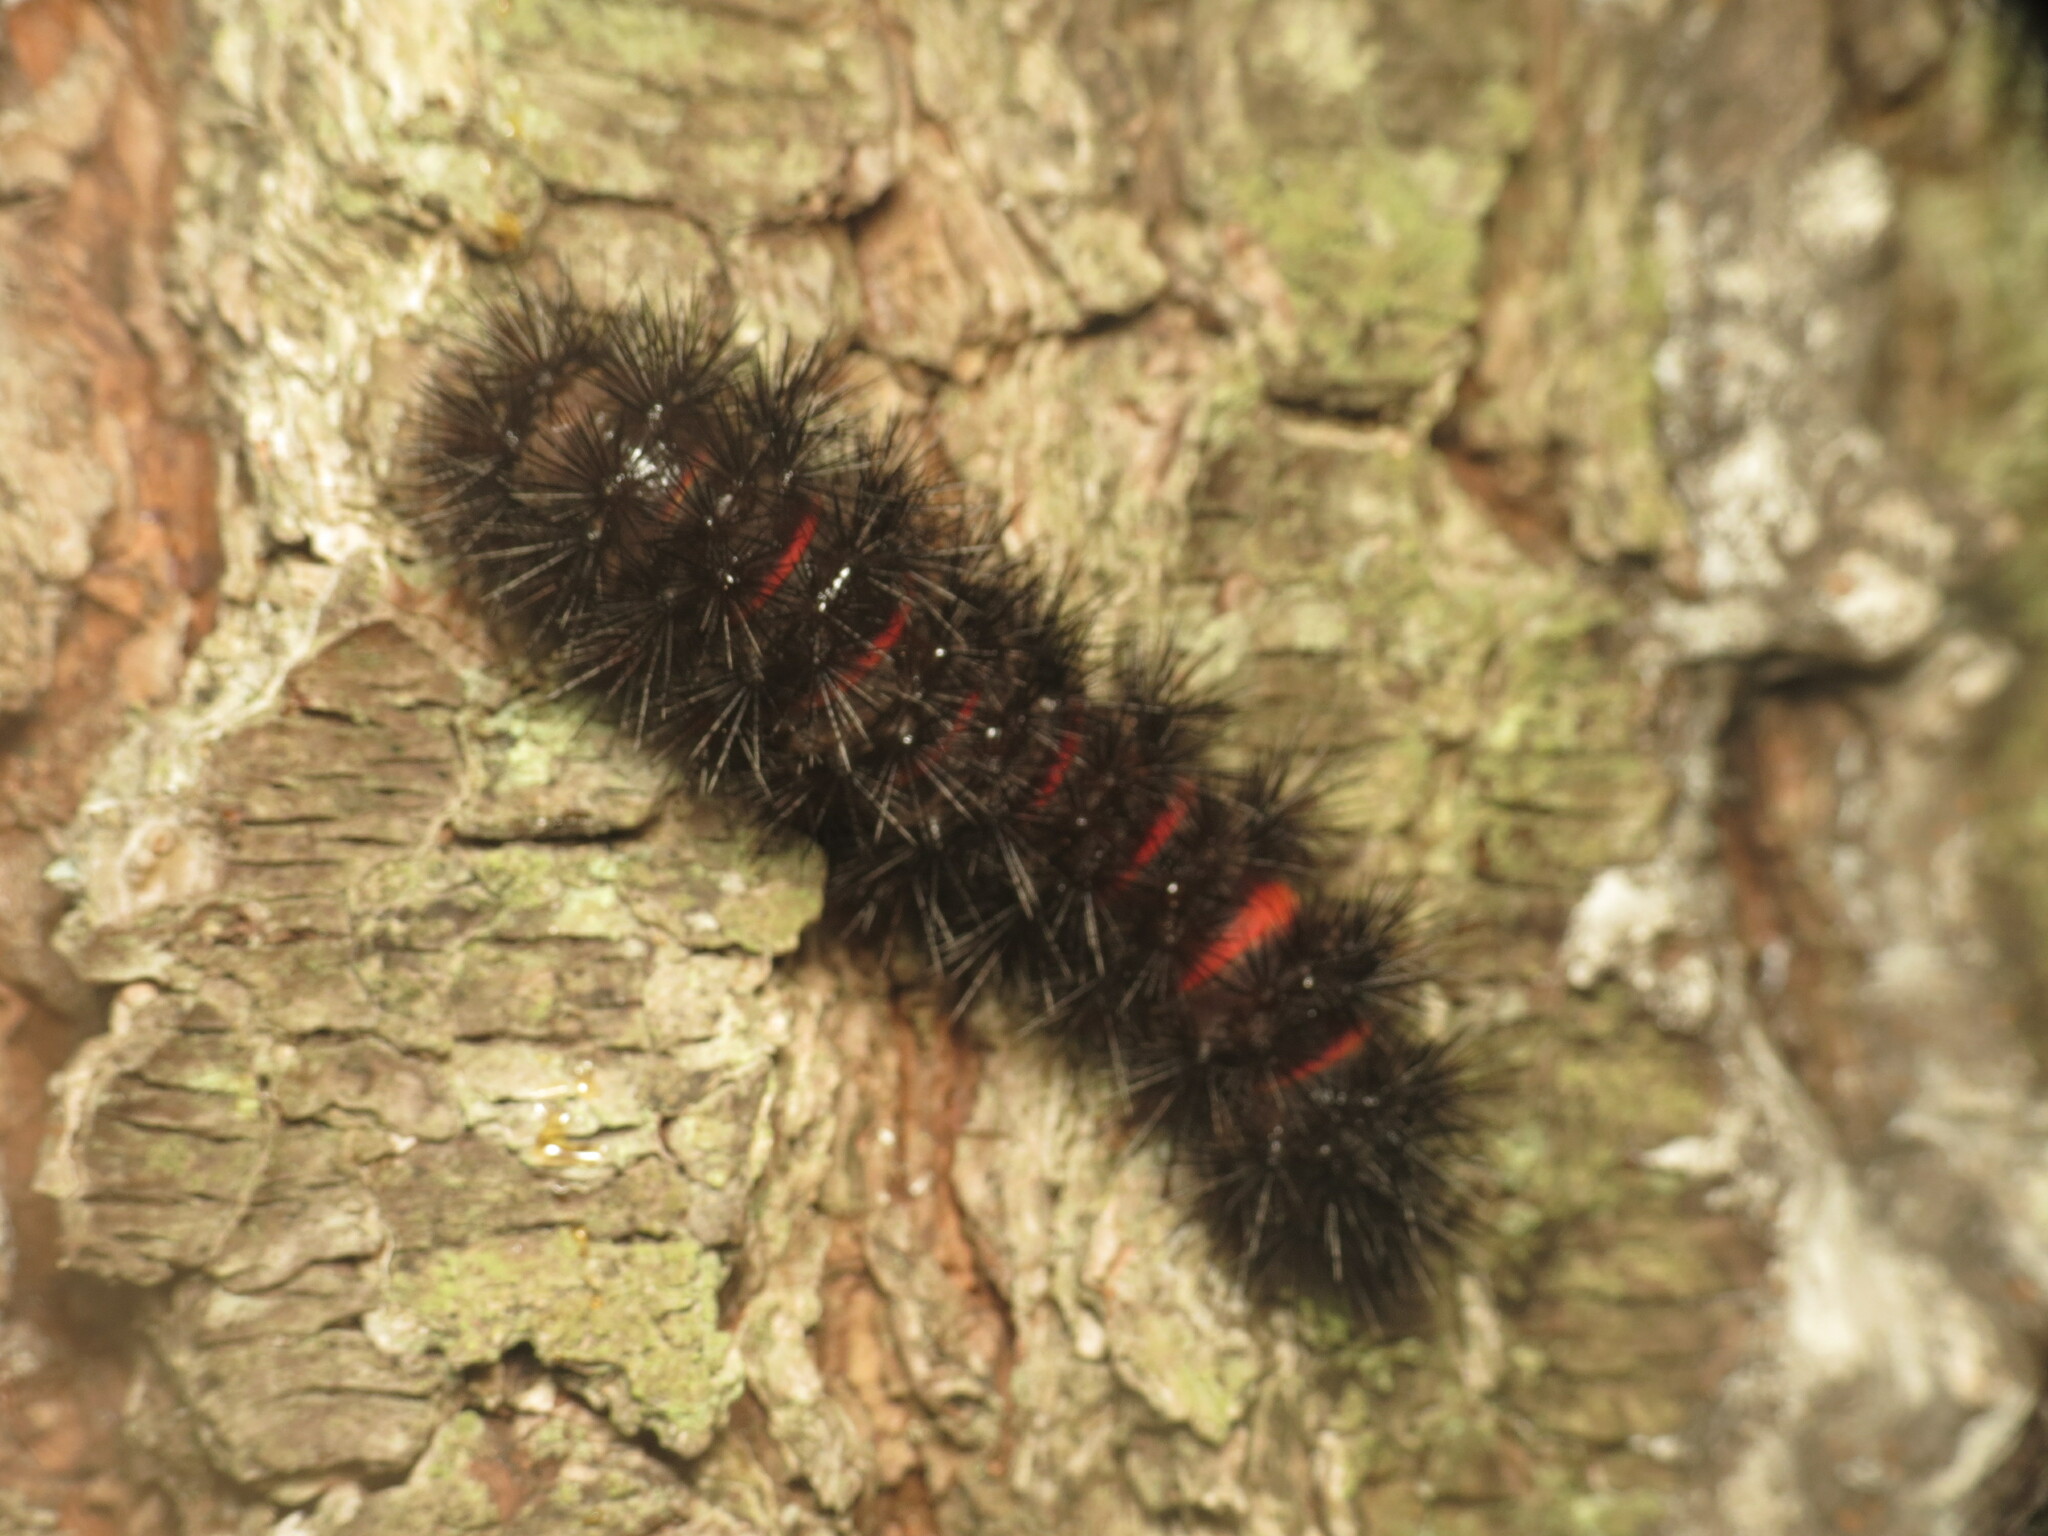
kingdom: Animalia
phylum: Arthropoda
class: Insecta
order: Lepidoptera
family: Erebidae
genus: Hypercompe
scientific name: Hypercompe scribonia
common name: Giant leopard moth
